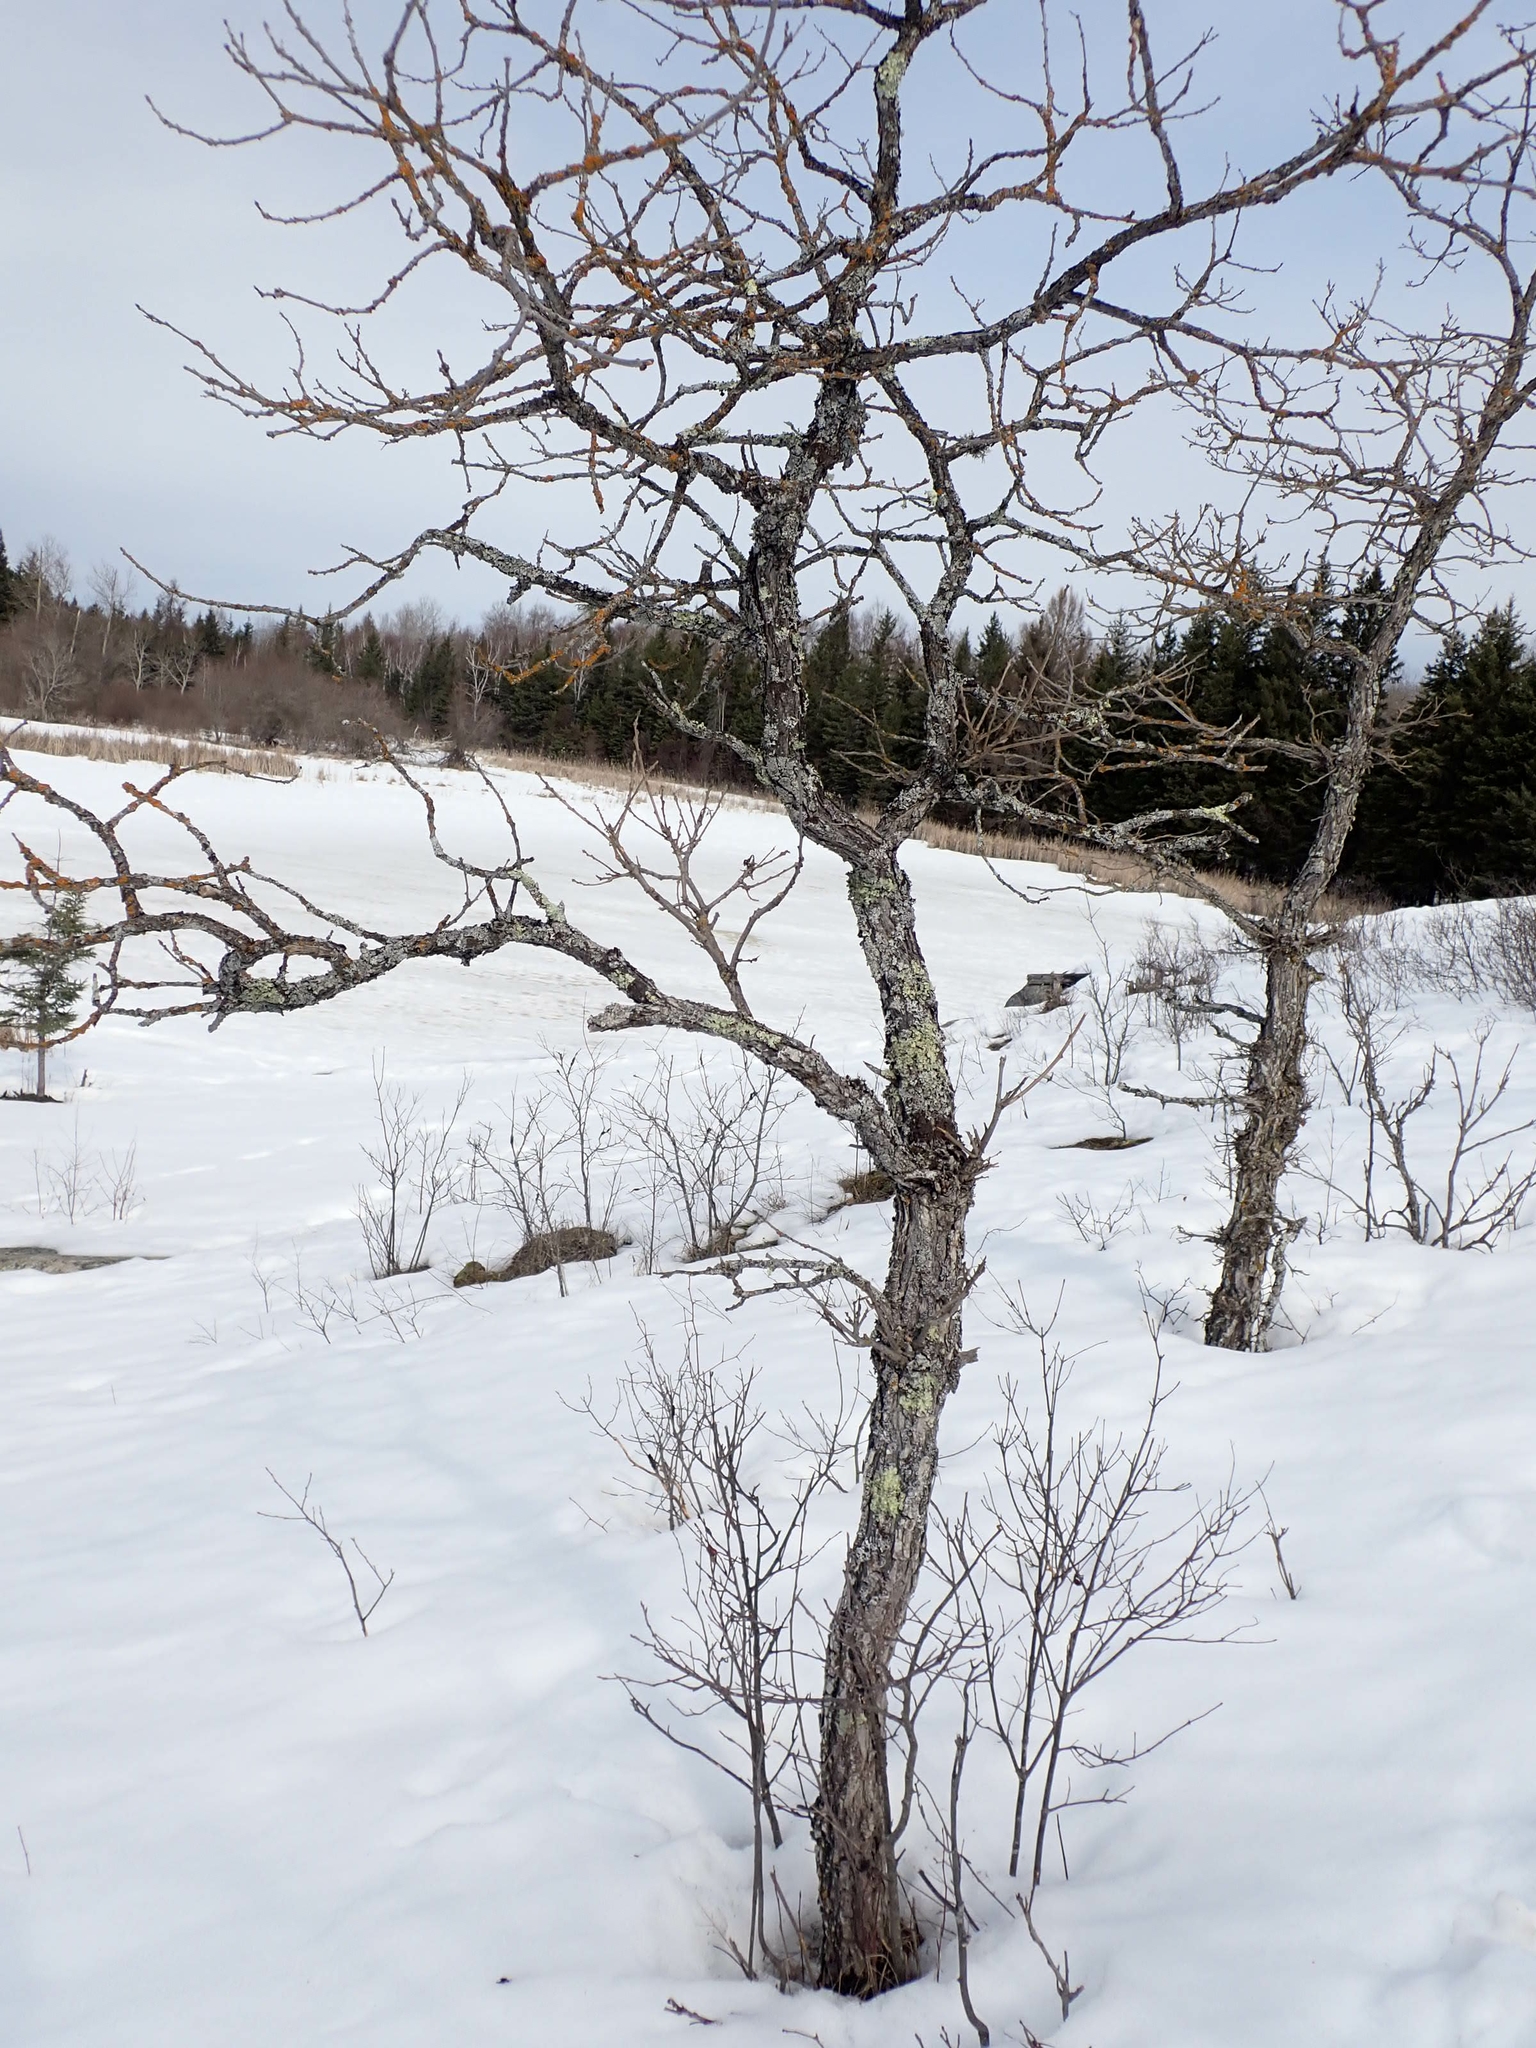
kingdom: Plantae
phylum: Tracheophyta
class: Magnoliopsida
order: Fagales
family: Fagaceae
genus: Quercus
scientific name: Quercus macrocarpa
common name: Bur oak
